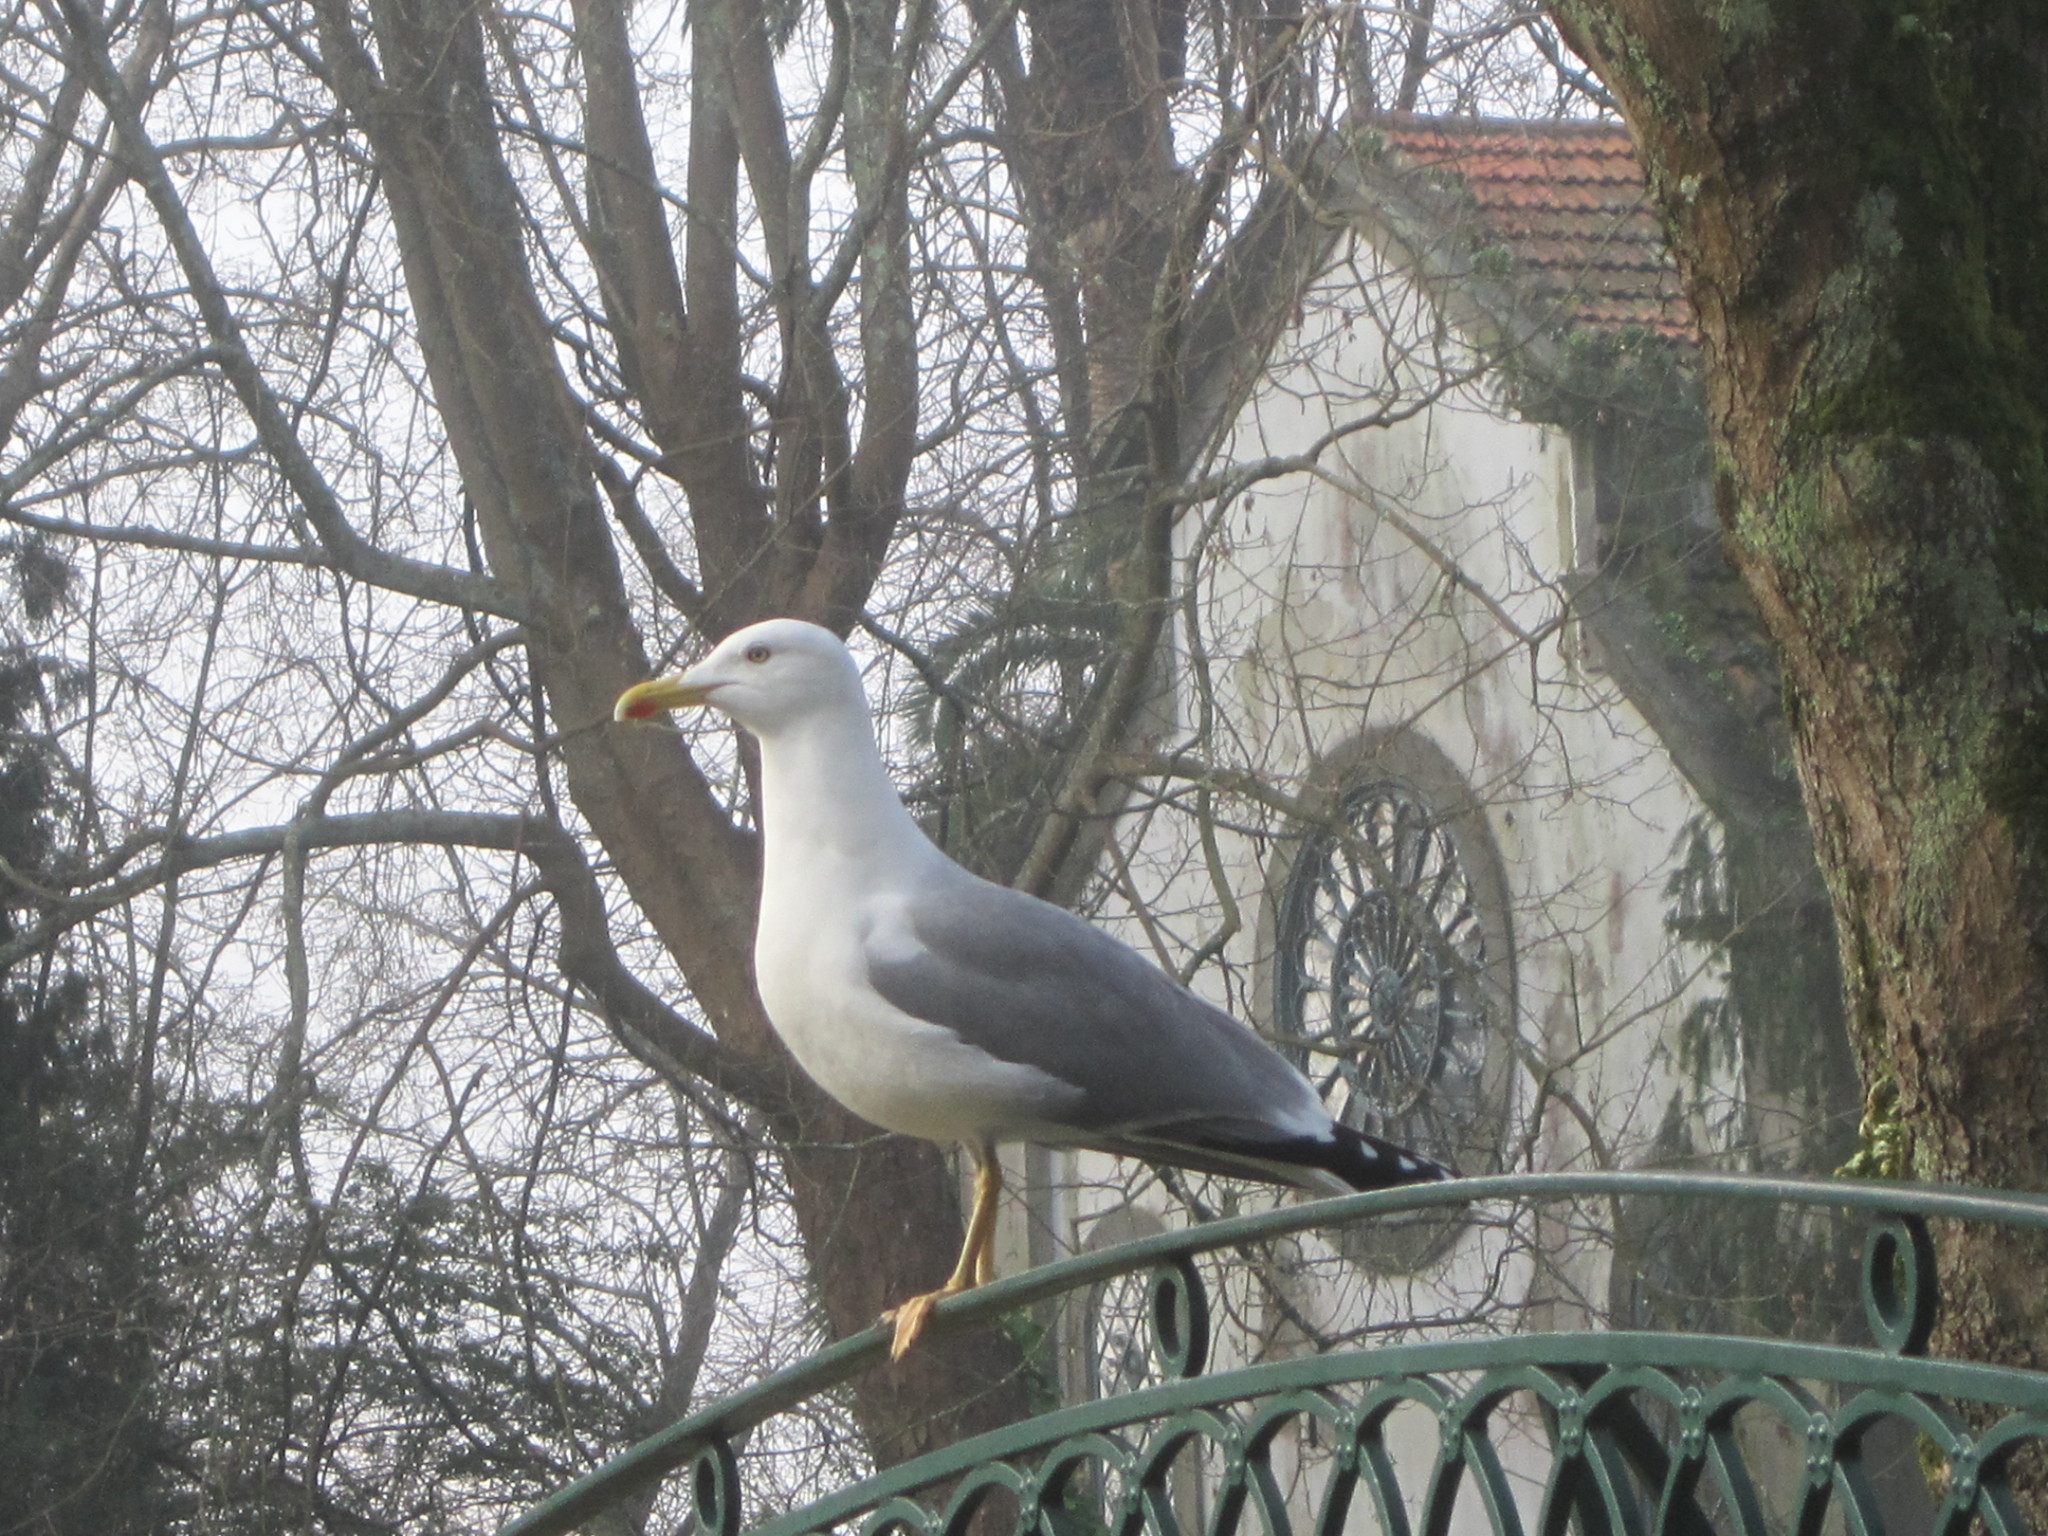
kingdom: Animalia
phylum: Chordata
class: Aves
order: Charadriiformes
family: Laridae
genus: Larus
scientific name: Larus michahellis
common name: Yellow-legged gull
